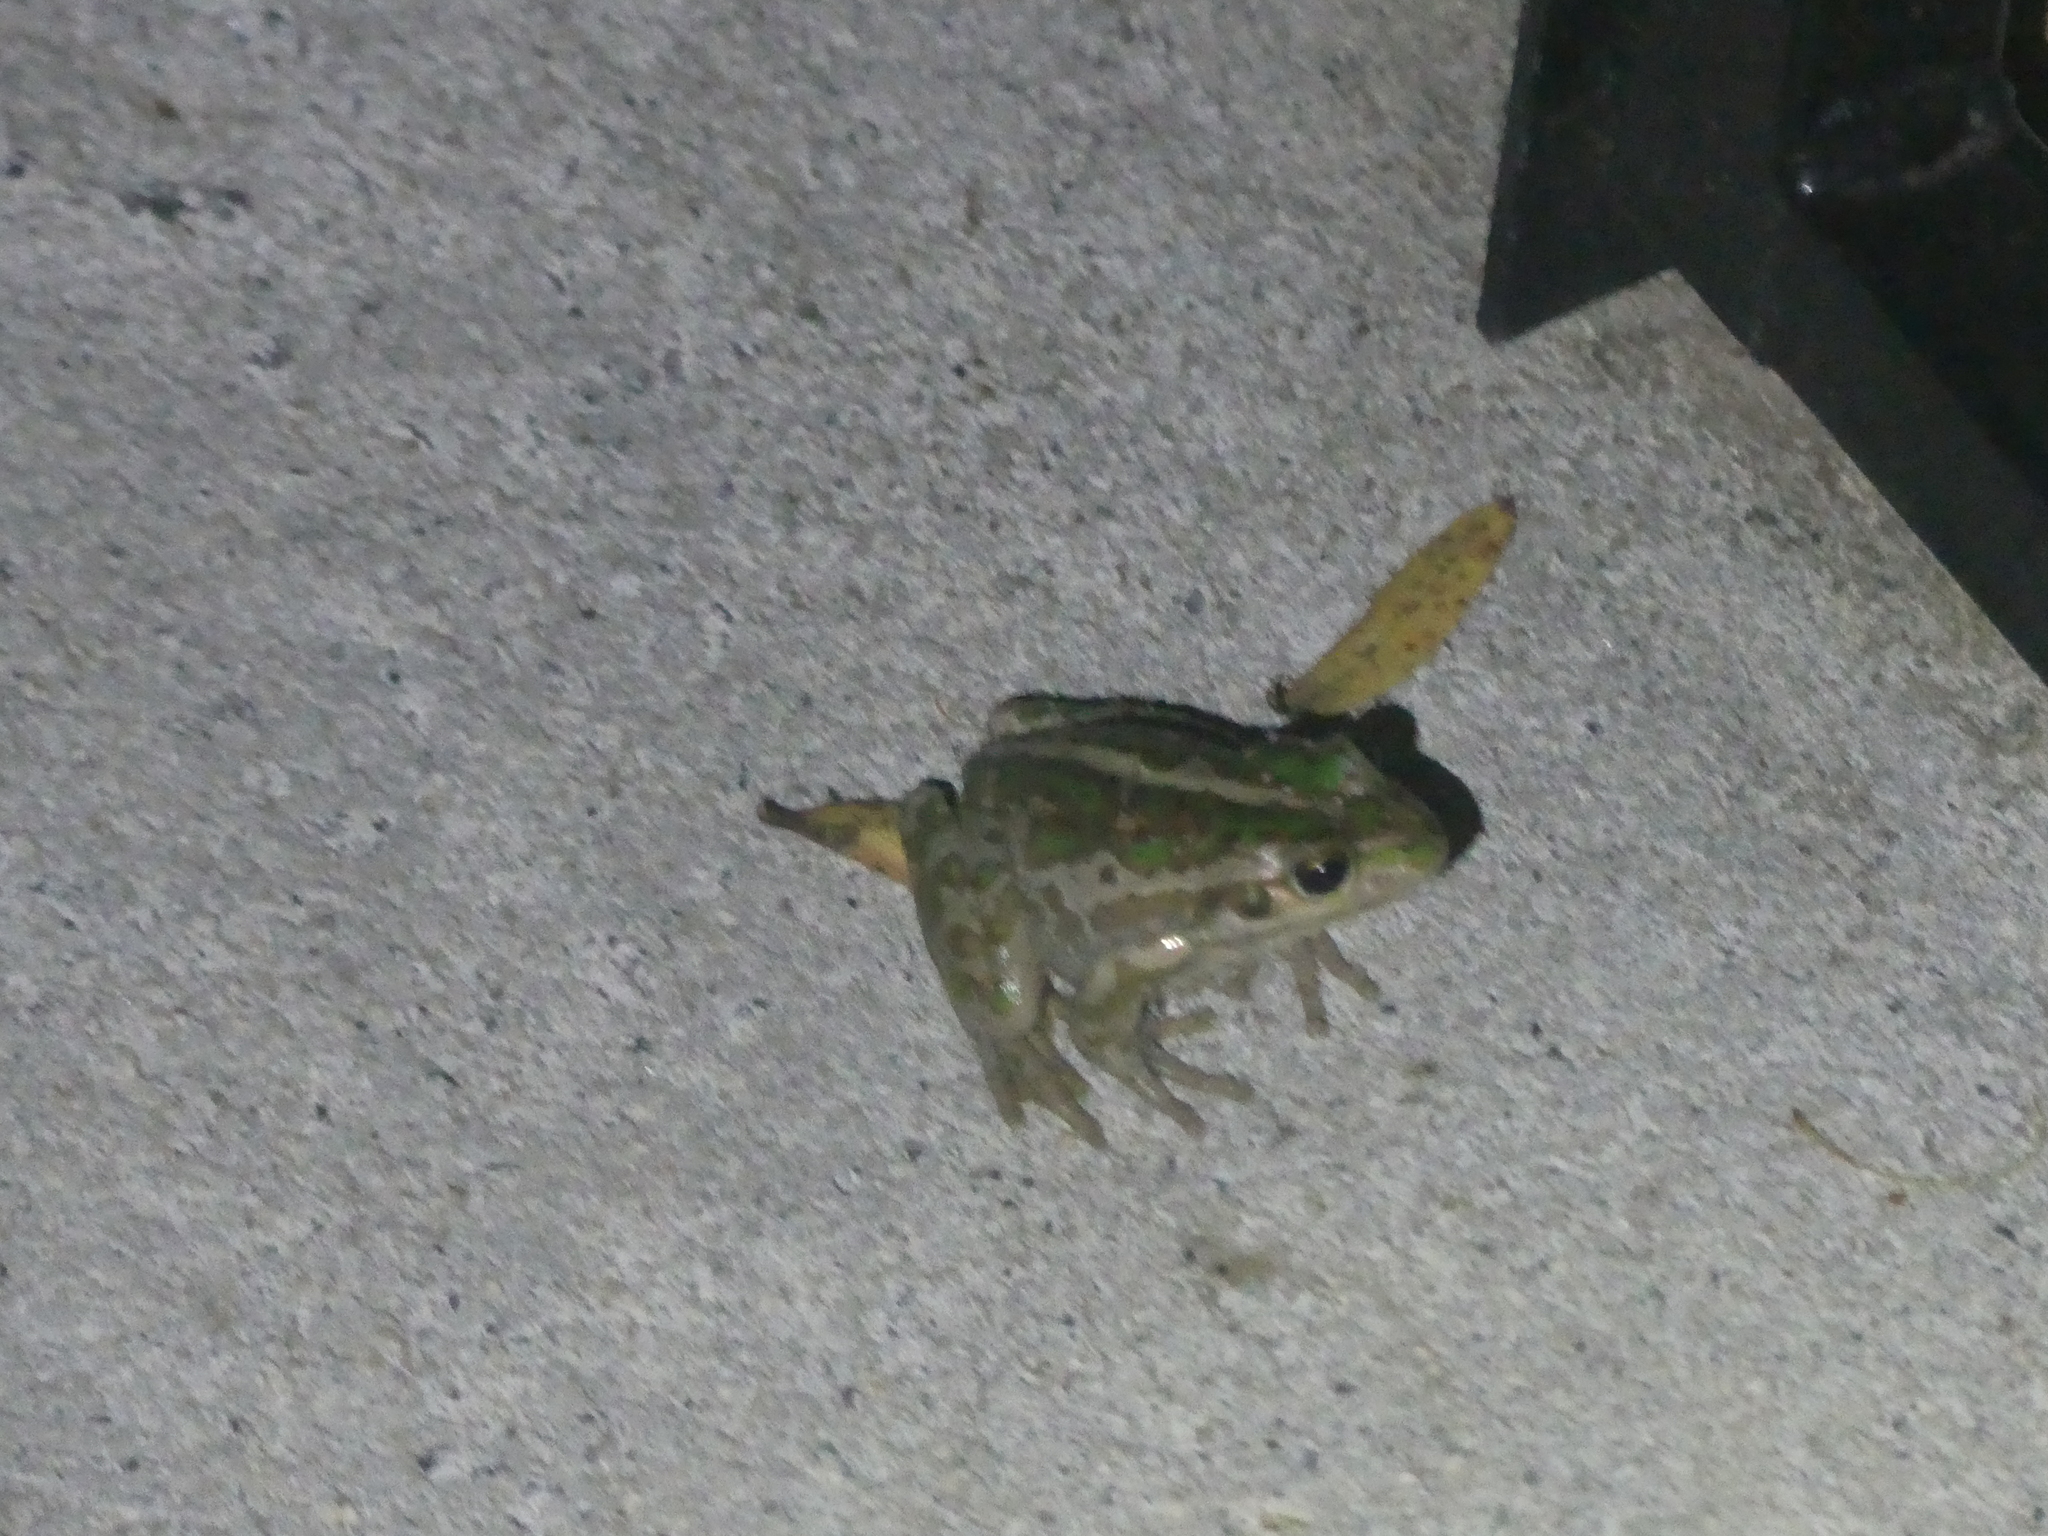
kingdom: Animalia
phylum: Chordata
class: Amphibia
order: Anura
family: Pelodryadidae
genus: Ranoidea
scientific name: Ranoidea moorei
